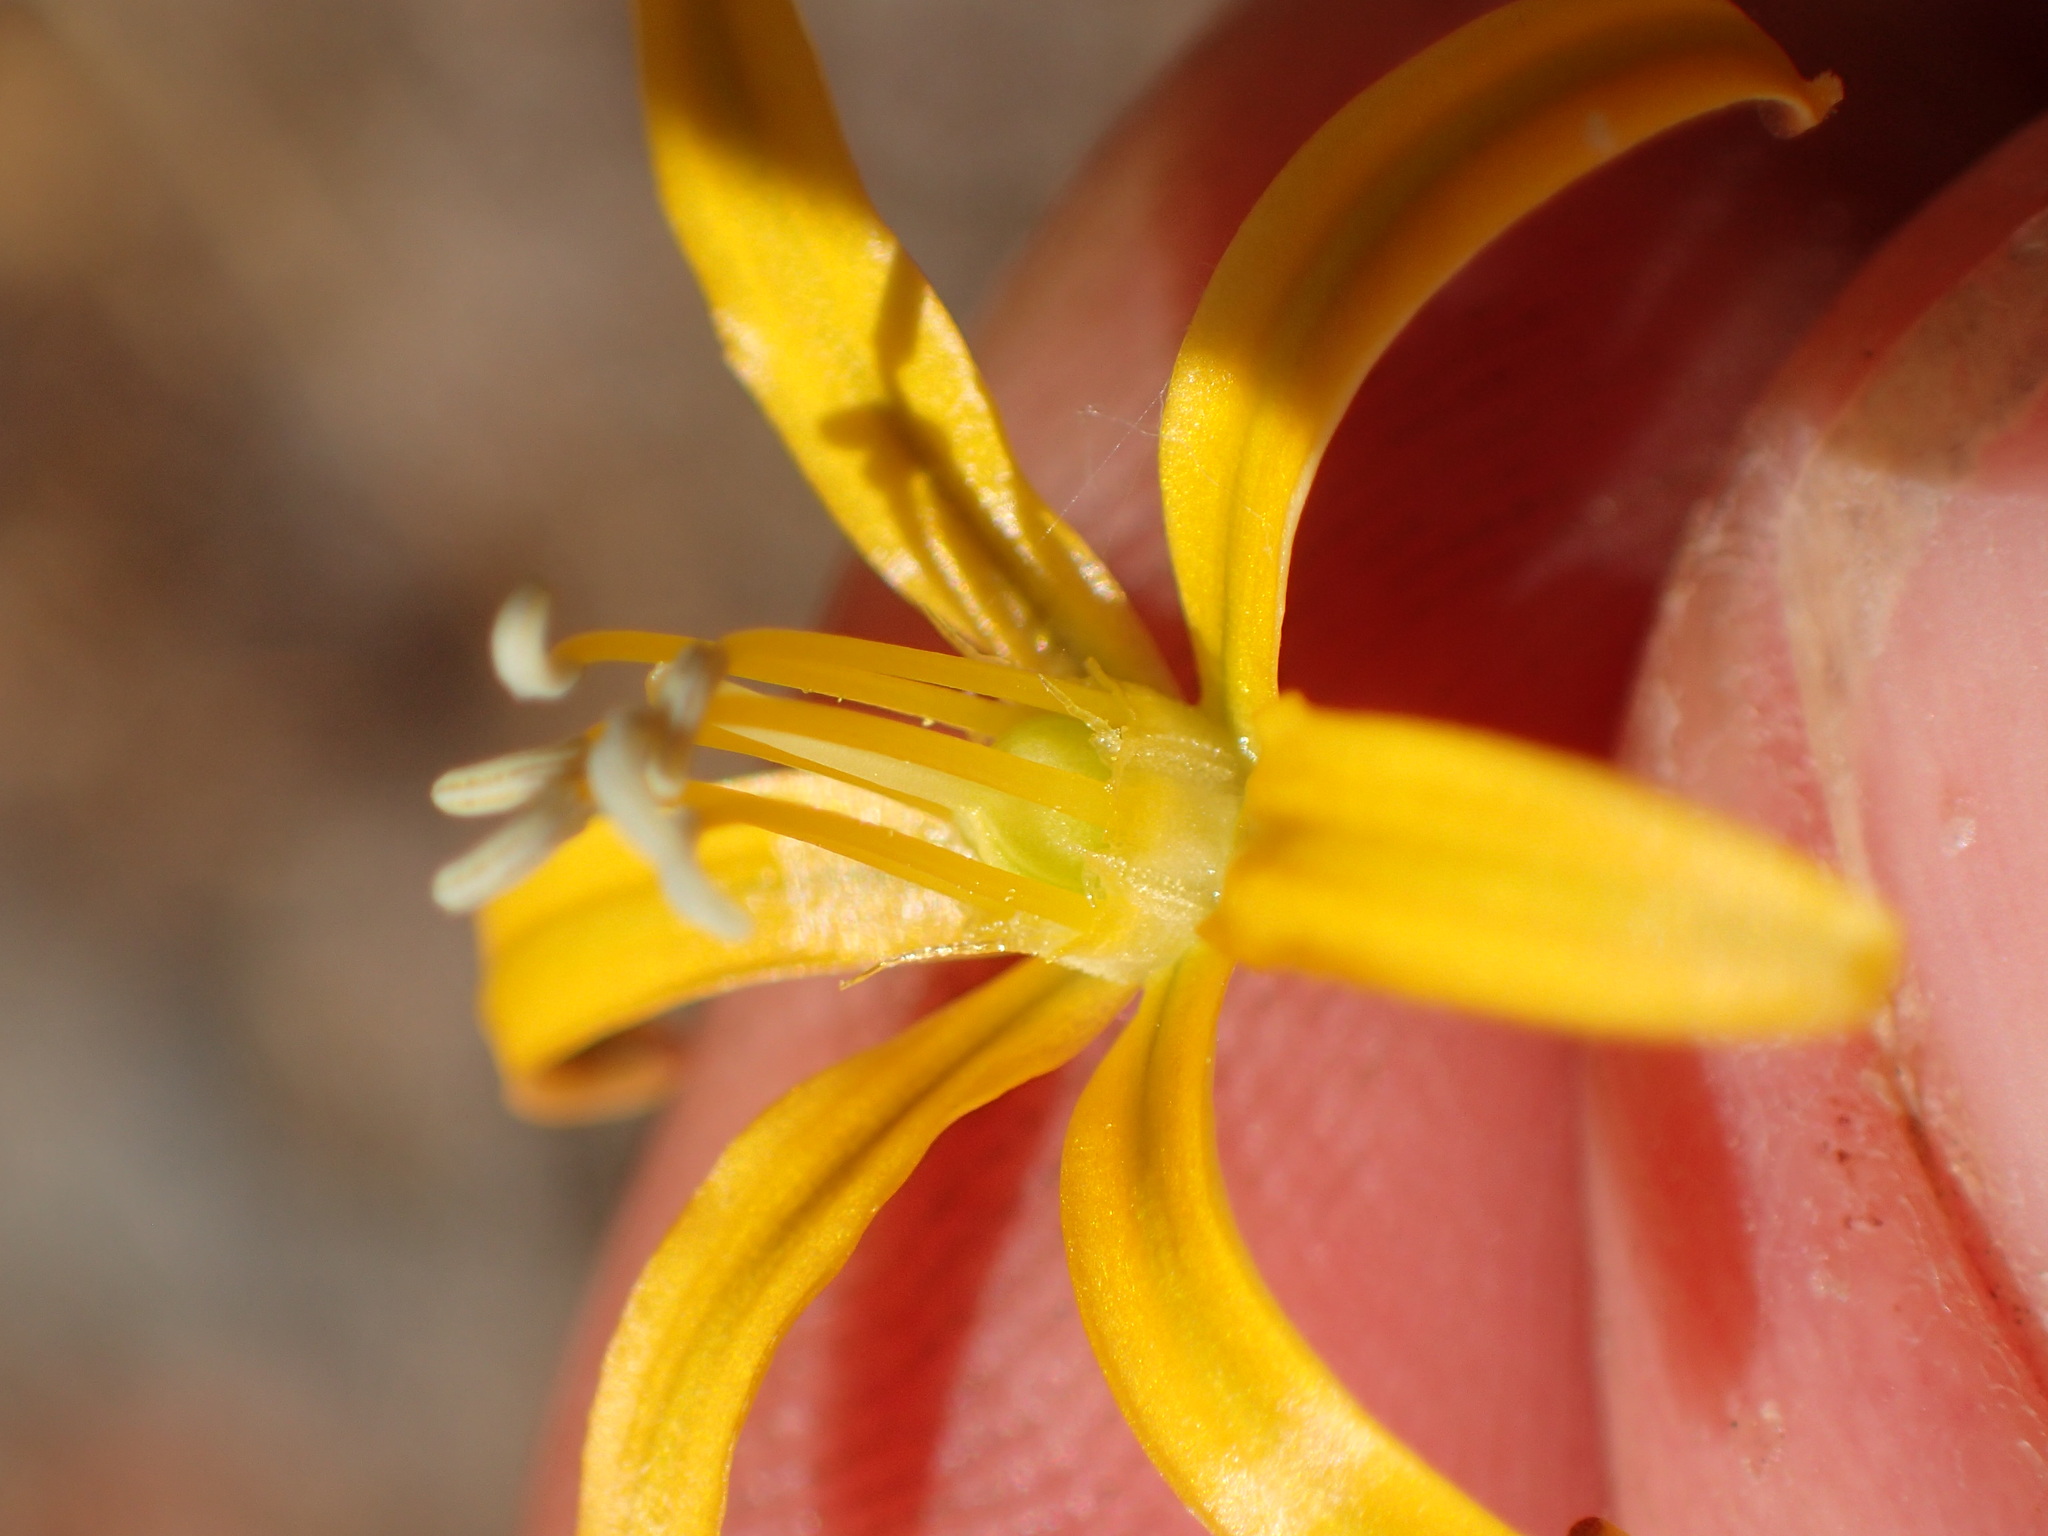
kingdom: Plantae
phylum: Tracheophyta
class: Liliopsida
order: Asparagales
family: Asparagaceae
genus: Bloomeria
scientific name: Bloomeria crocea
